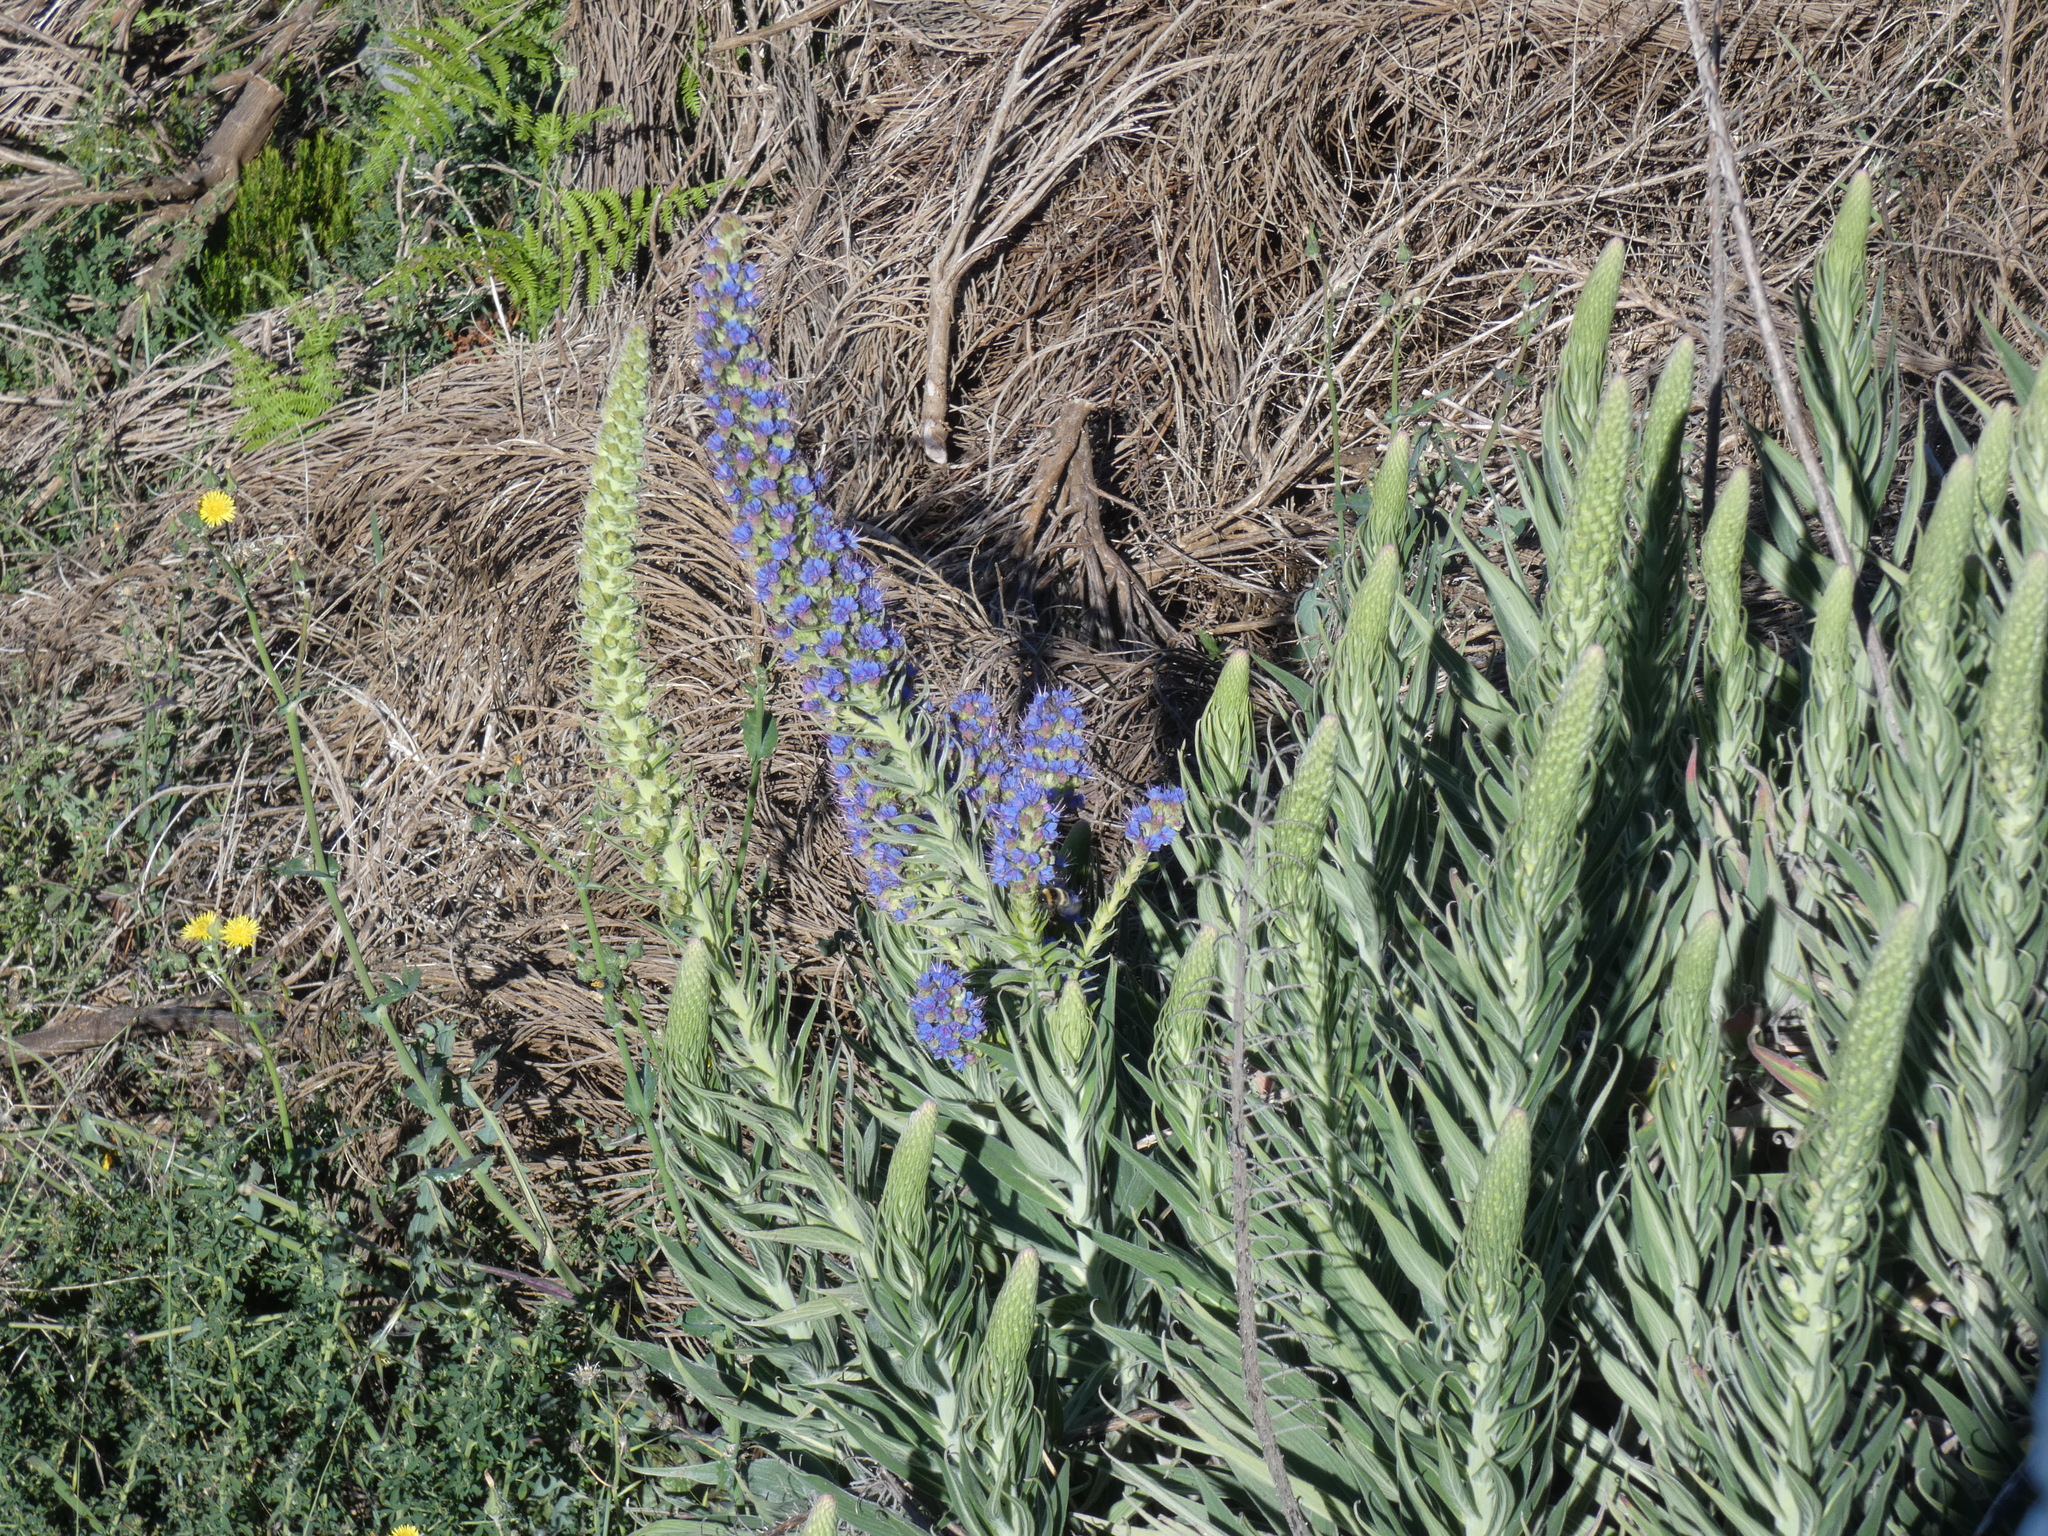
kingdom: Plantae
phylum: Tracheophyta
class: Magnoliopsida
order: Boraginales
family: Boraginaceae
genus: Echium
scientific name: Echium candicans
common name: Pride of madeira
